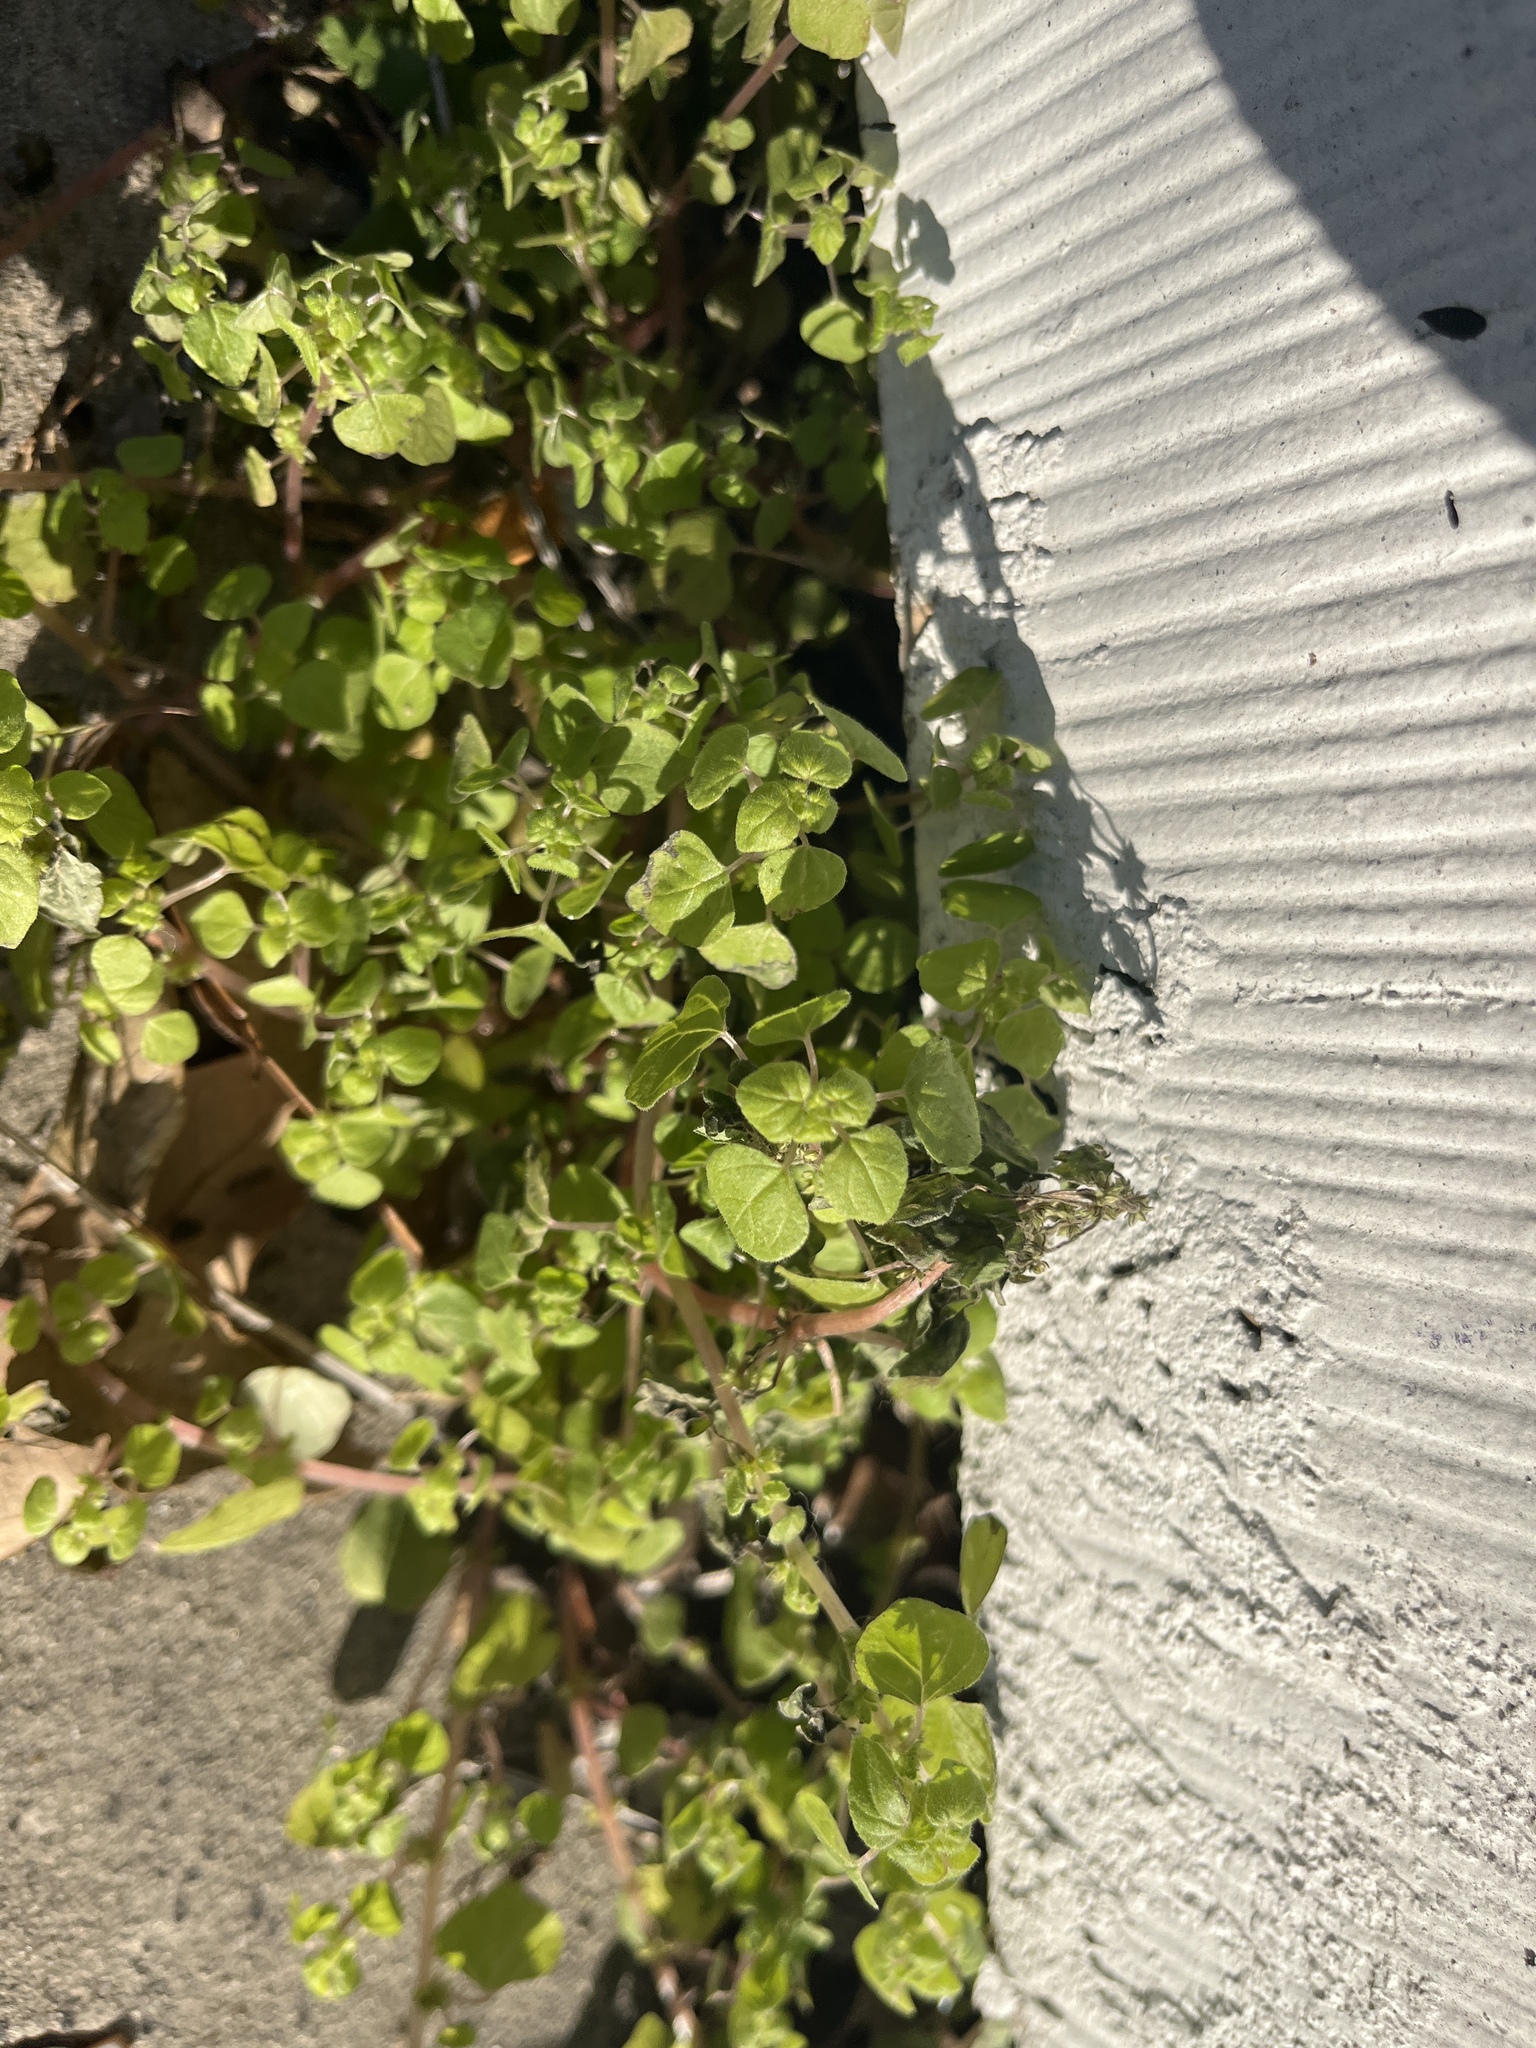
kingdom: Plantae
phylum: Tracheophyta
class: Magnoliopsida
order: Rosales
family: Urticaceae
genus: Parietaria
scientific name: Parietaria floridana
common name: Florida pellitory
